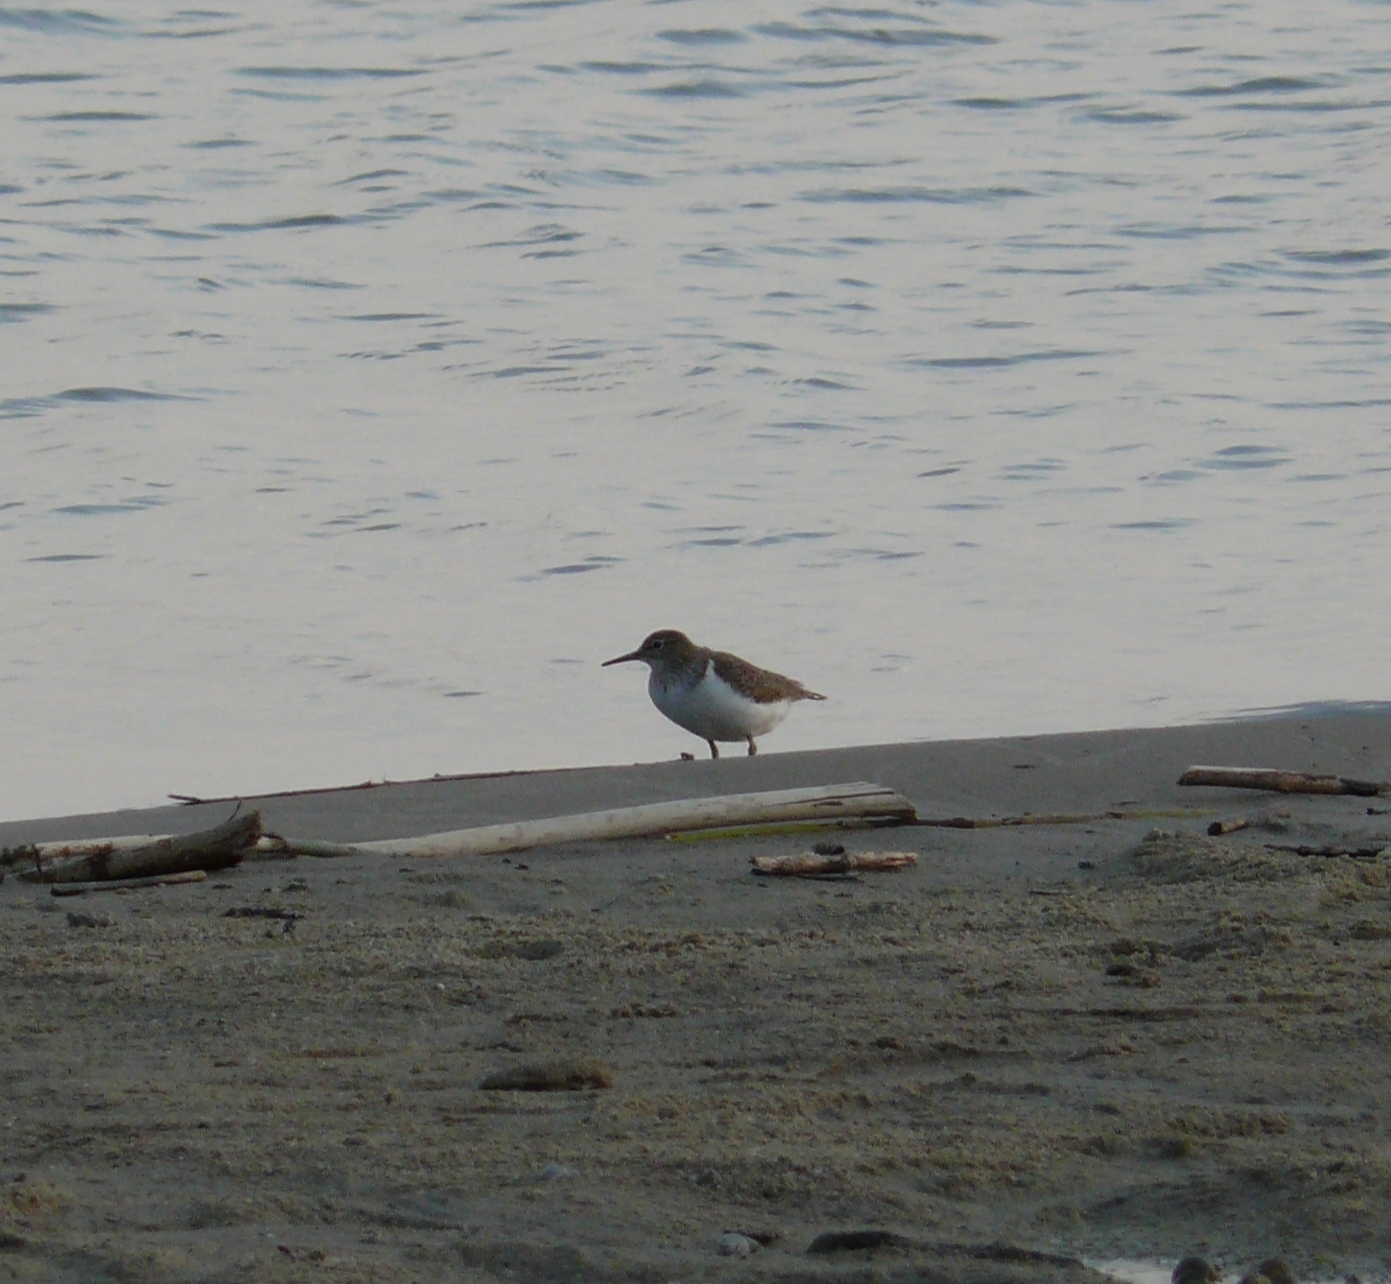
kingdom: Animalia
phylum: Chordata
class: Aves
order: Charadriiformes
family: Scolopacidae
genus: Actitis
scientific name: Actitis hypoleucos
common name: Common sandpiper
